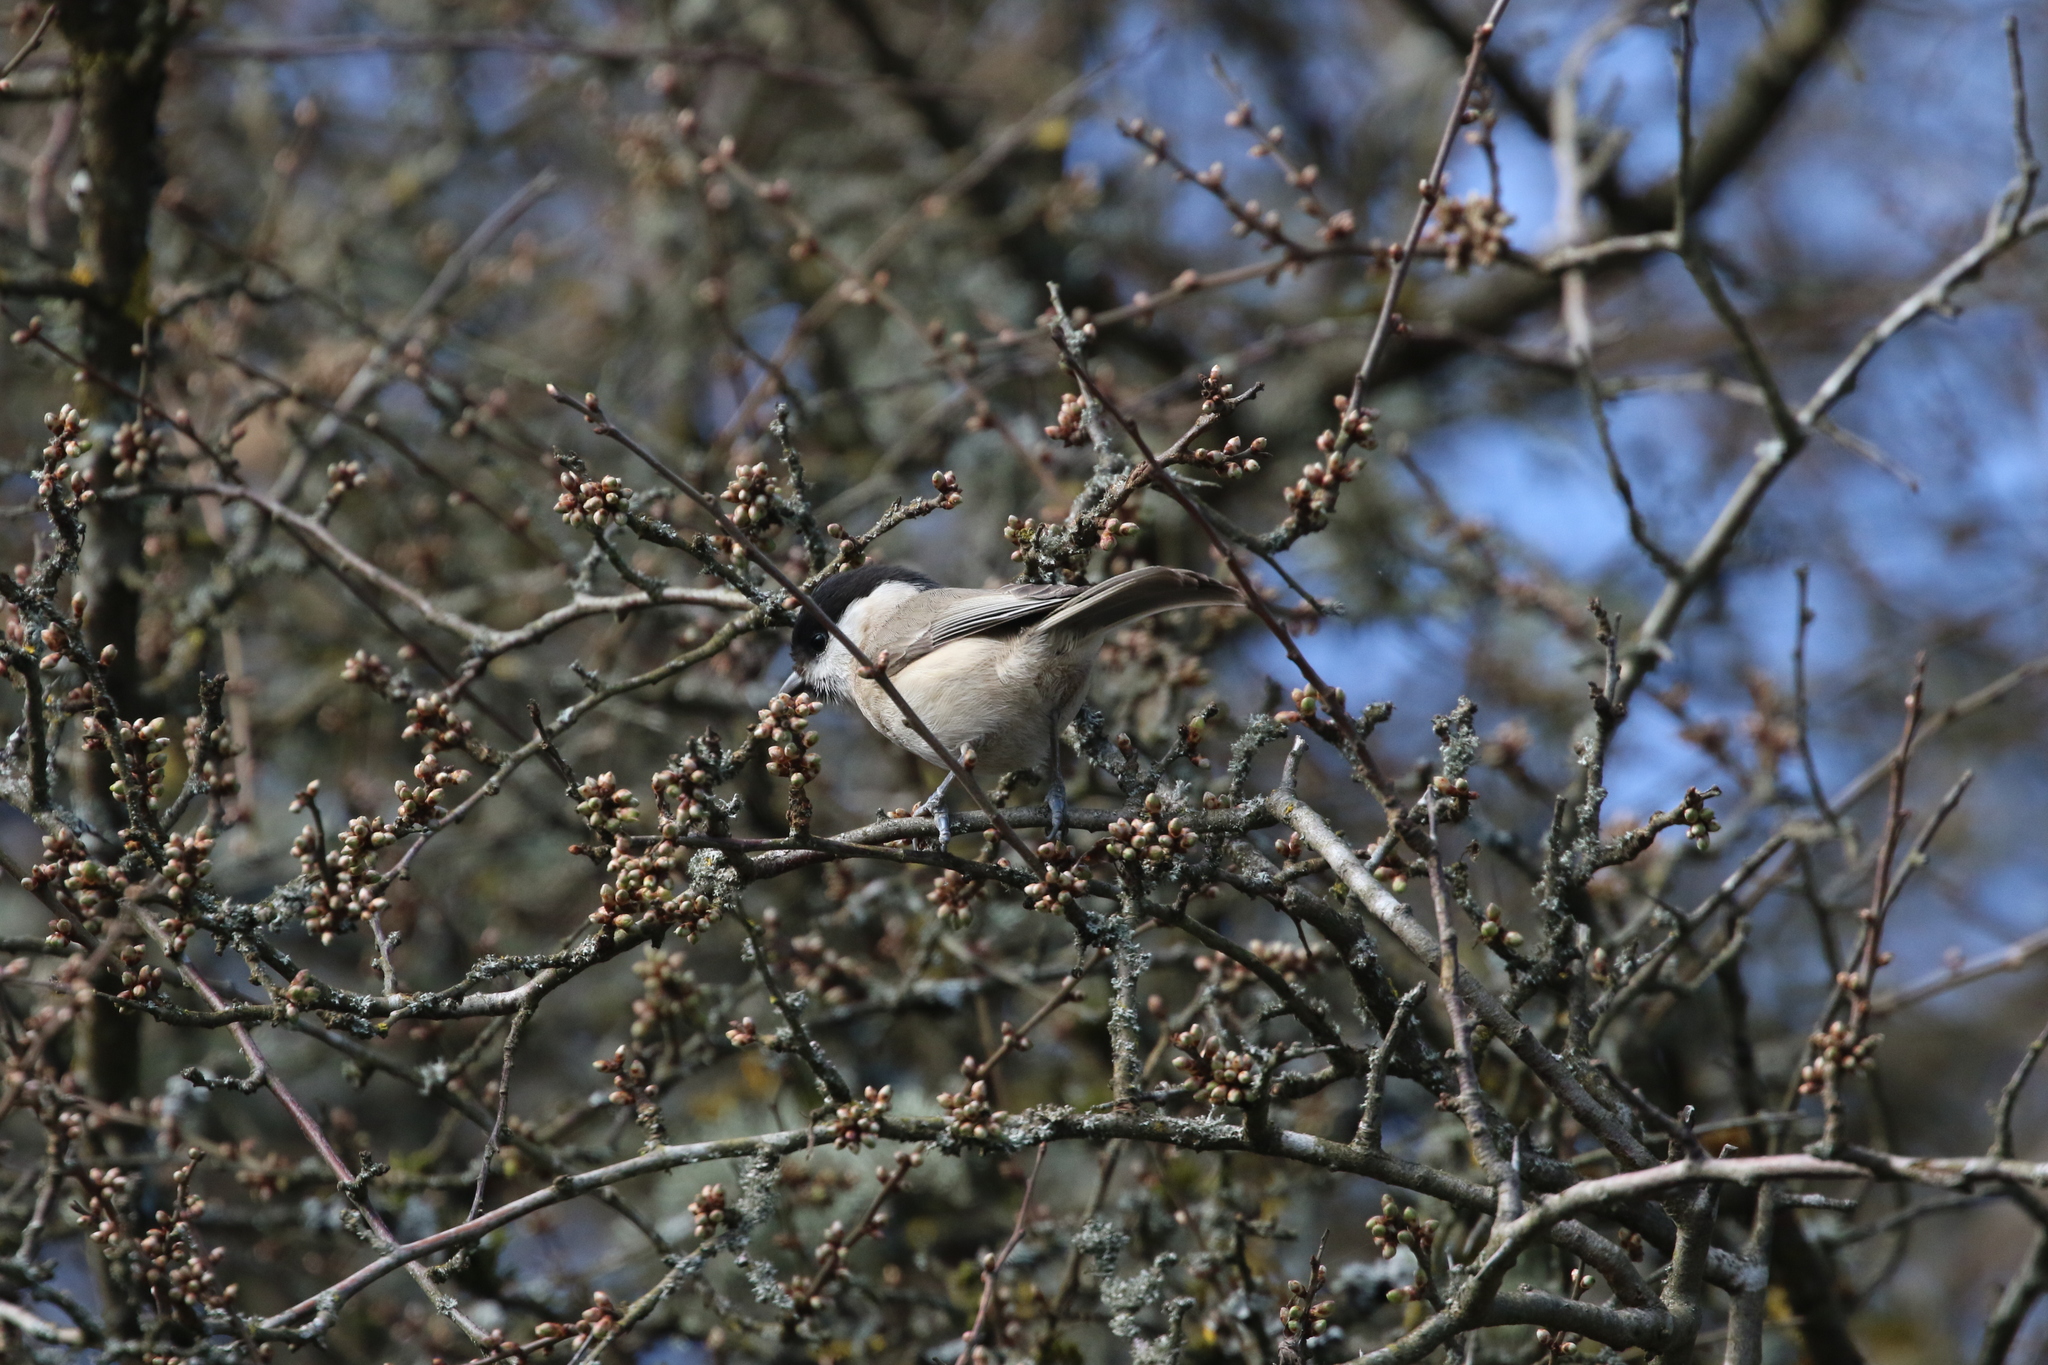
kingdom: Animalia
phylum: Chordata
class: Aves
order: Passeriformes
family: Paridae
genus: Poecile
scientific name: Poecile palustris
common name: Marsh tit
